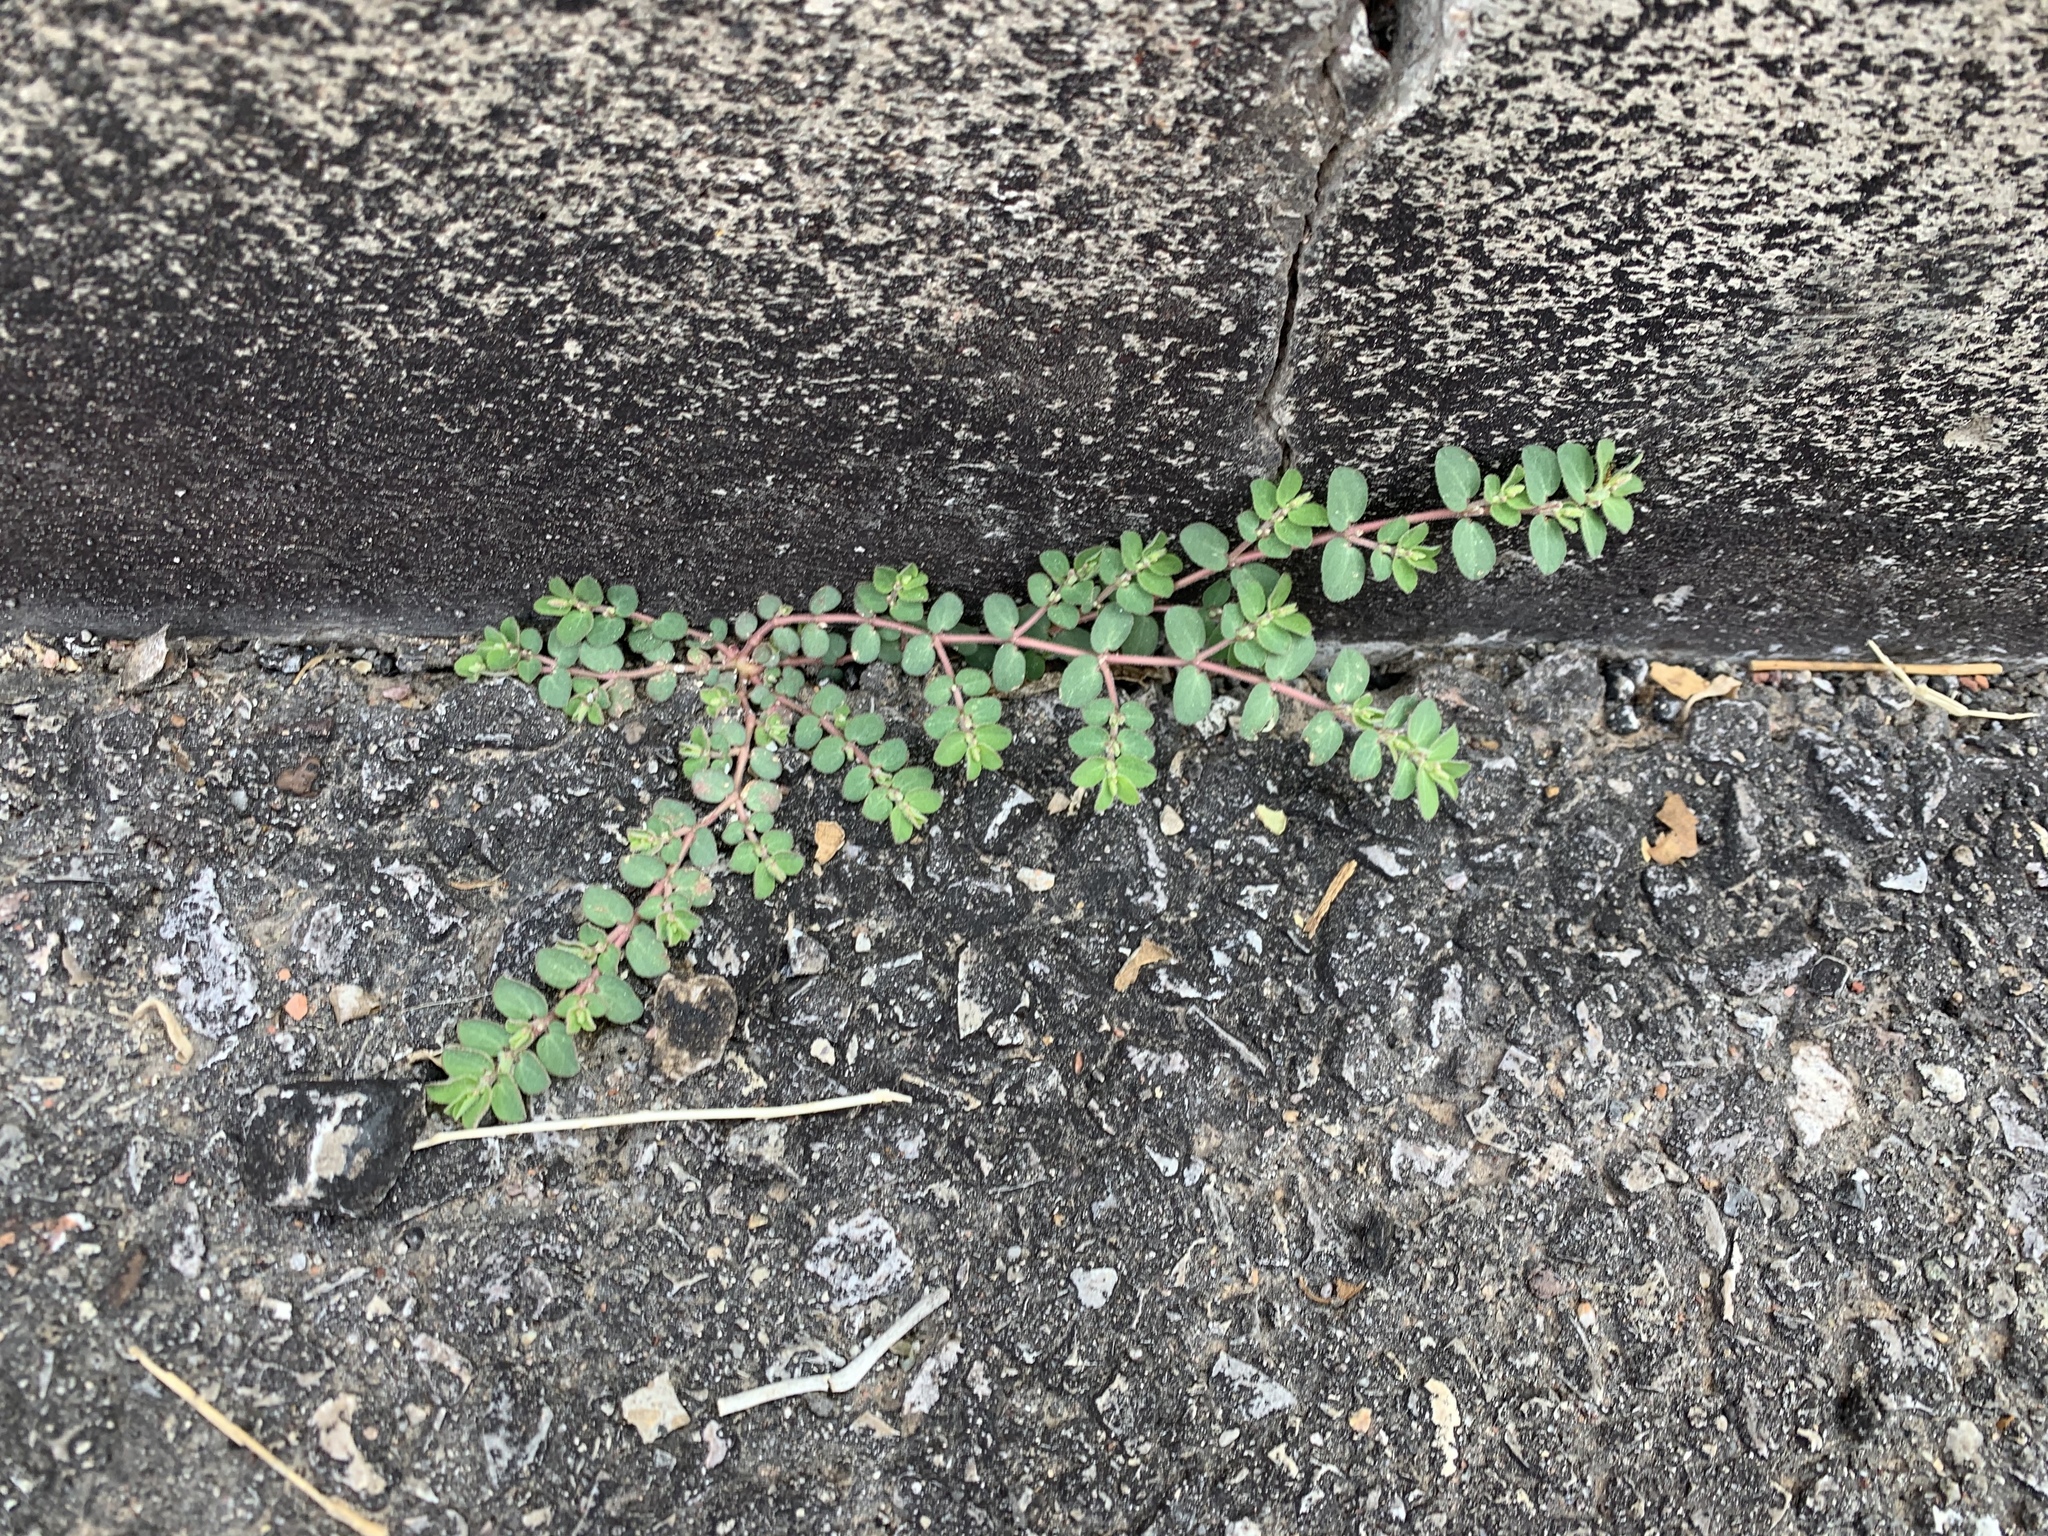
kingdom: Plantae
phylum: Tracheophyta
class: Magnoliopsida
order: Malpighiales
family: Euphorbiaceae
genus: Euphorbia
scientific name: Euphorbia prostrata
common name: Prostrate sandmat
